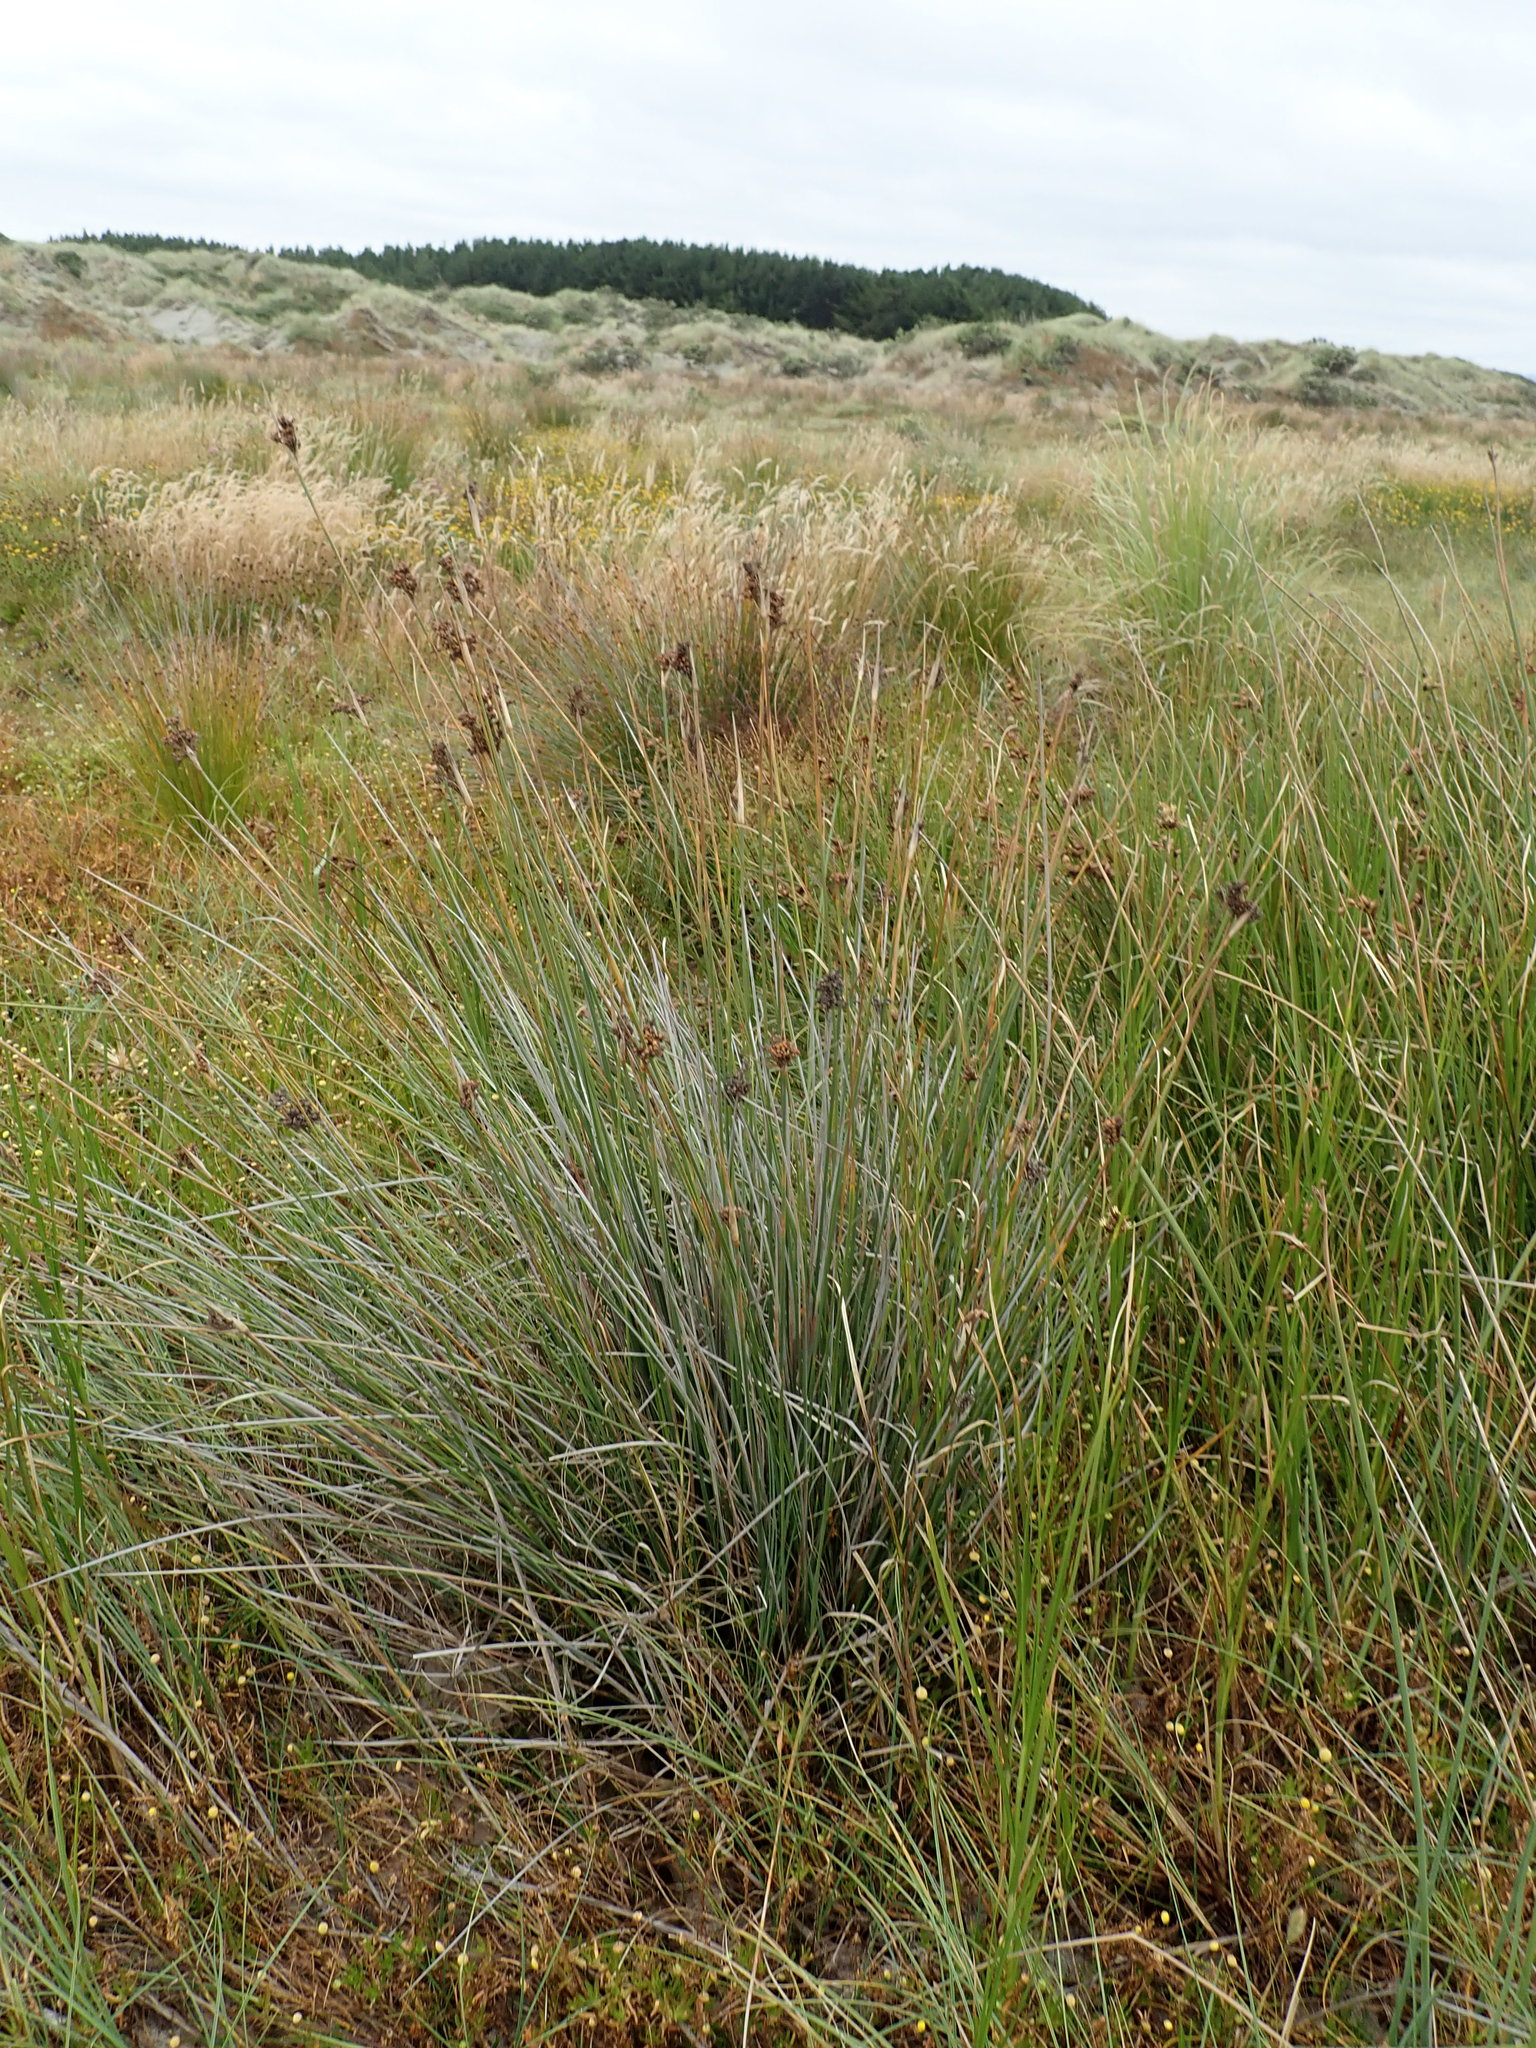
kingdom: Plantae
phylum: Tracheophyta
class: Liliopsida
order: Poales
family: Juncaceae
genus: Juncus
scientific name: Juncus acutus
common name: Sharp rush
